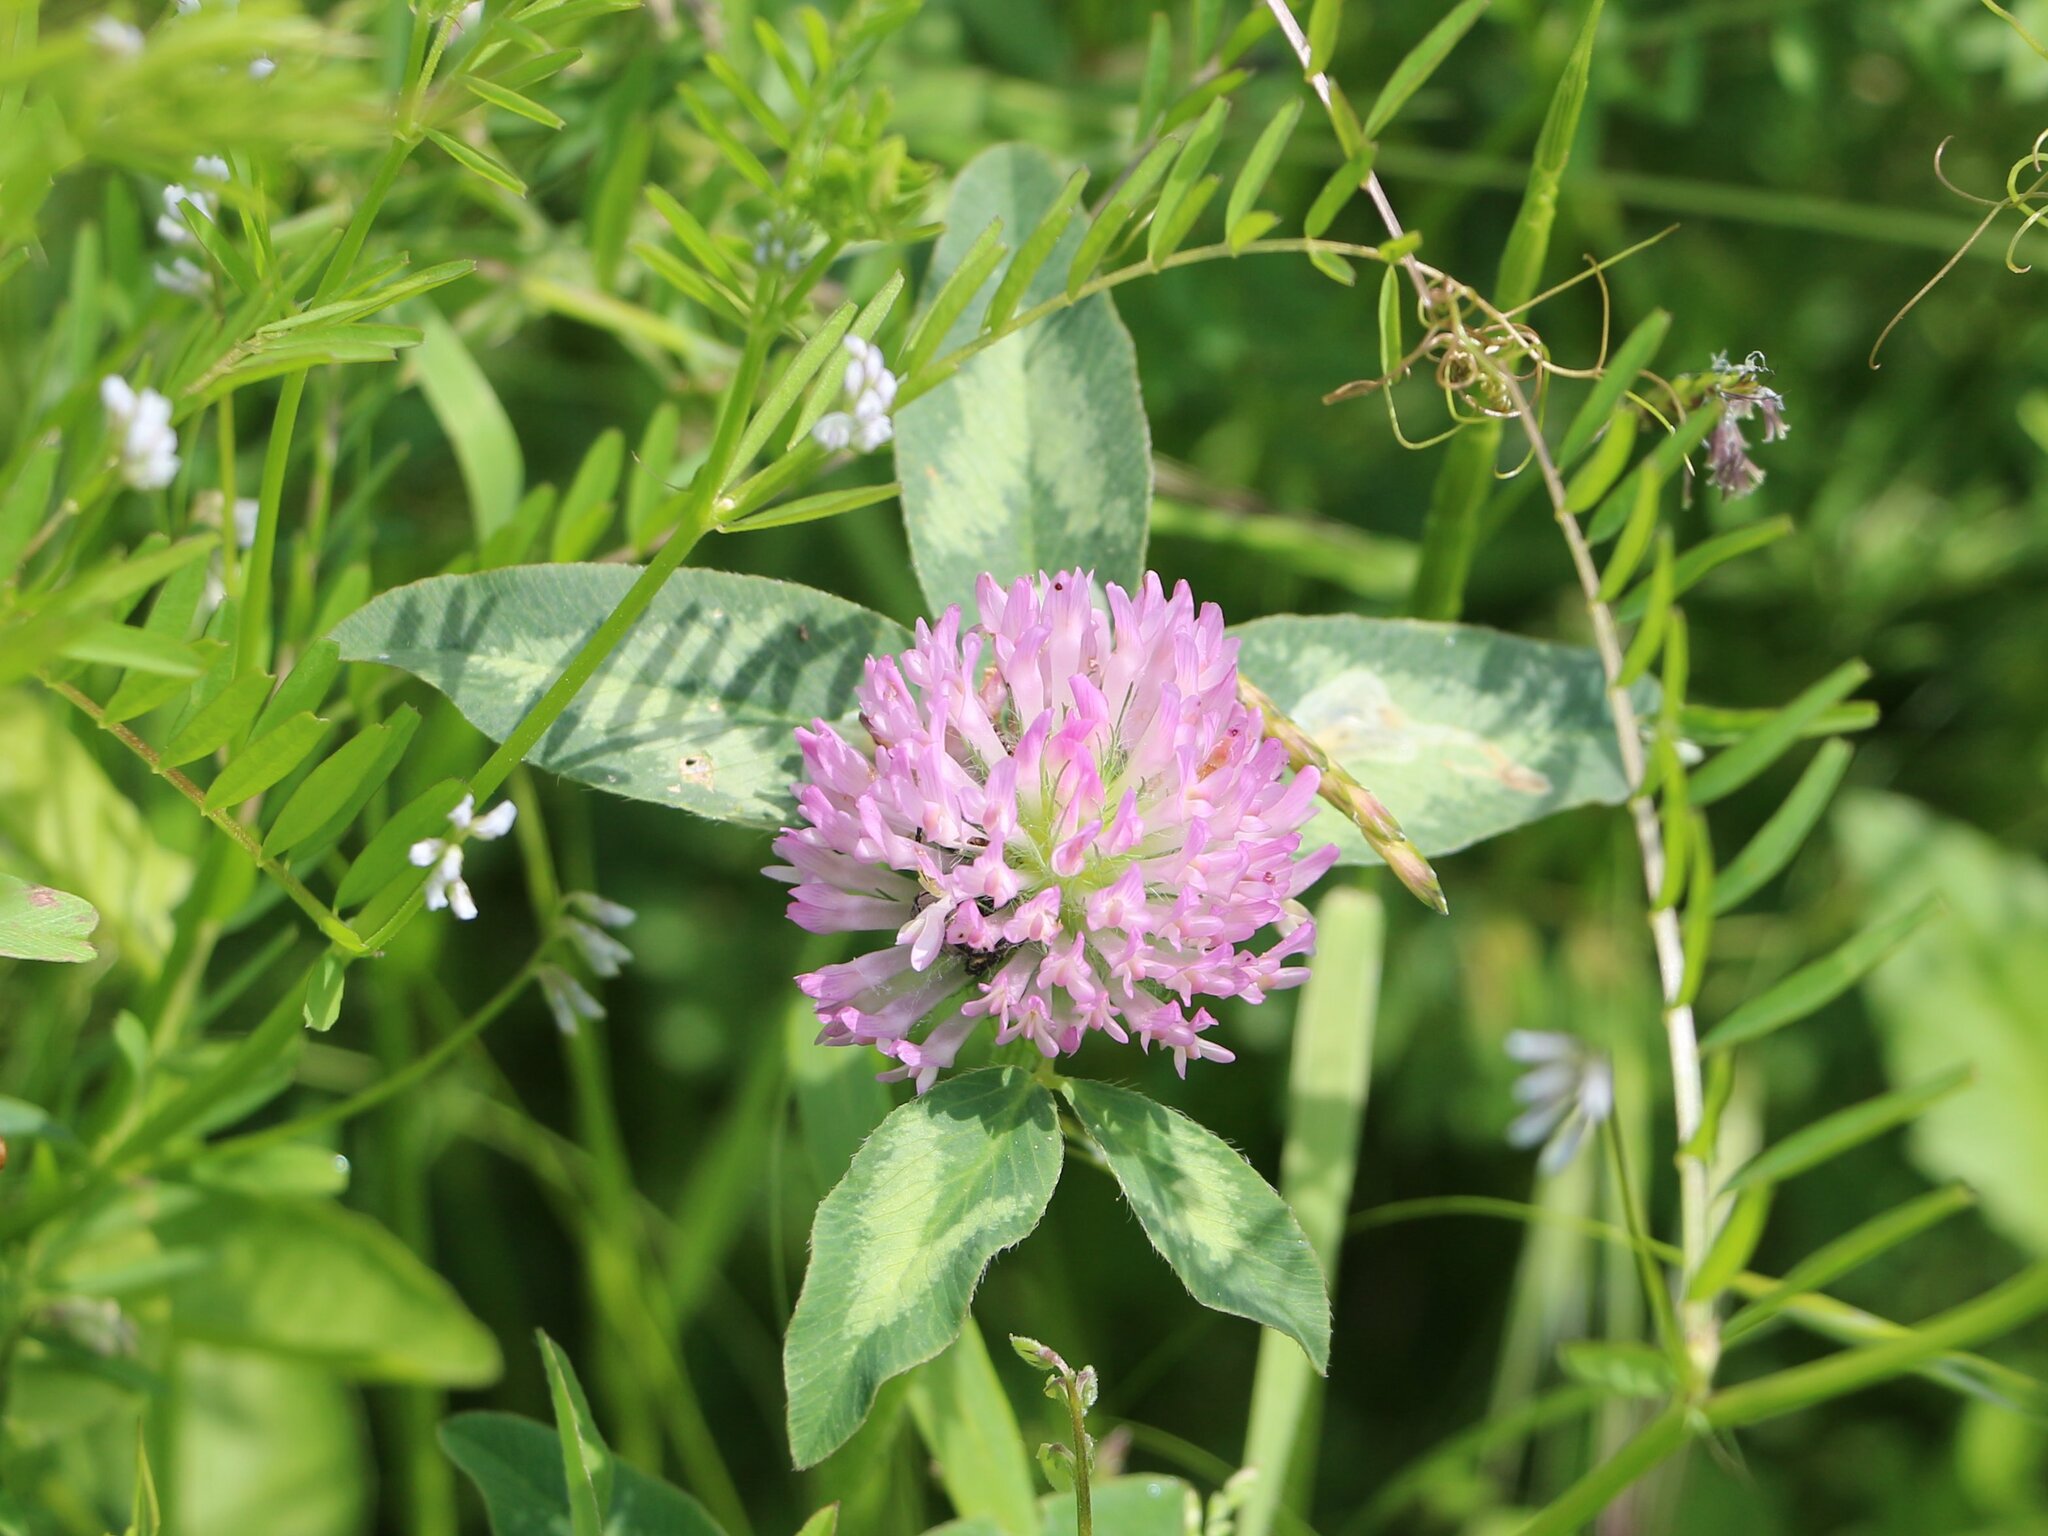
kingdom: Plantae
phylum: Tracheophyta
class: Magnoliopsida
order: Fabales
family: Fabaceae
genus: Trifolium
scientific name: Trifolium pratense
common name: Red clover
